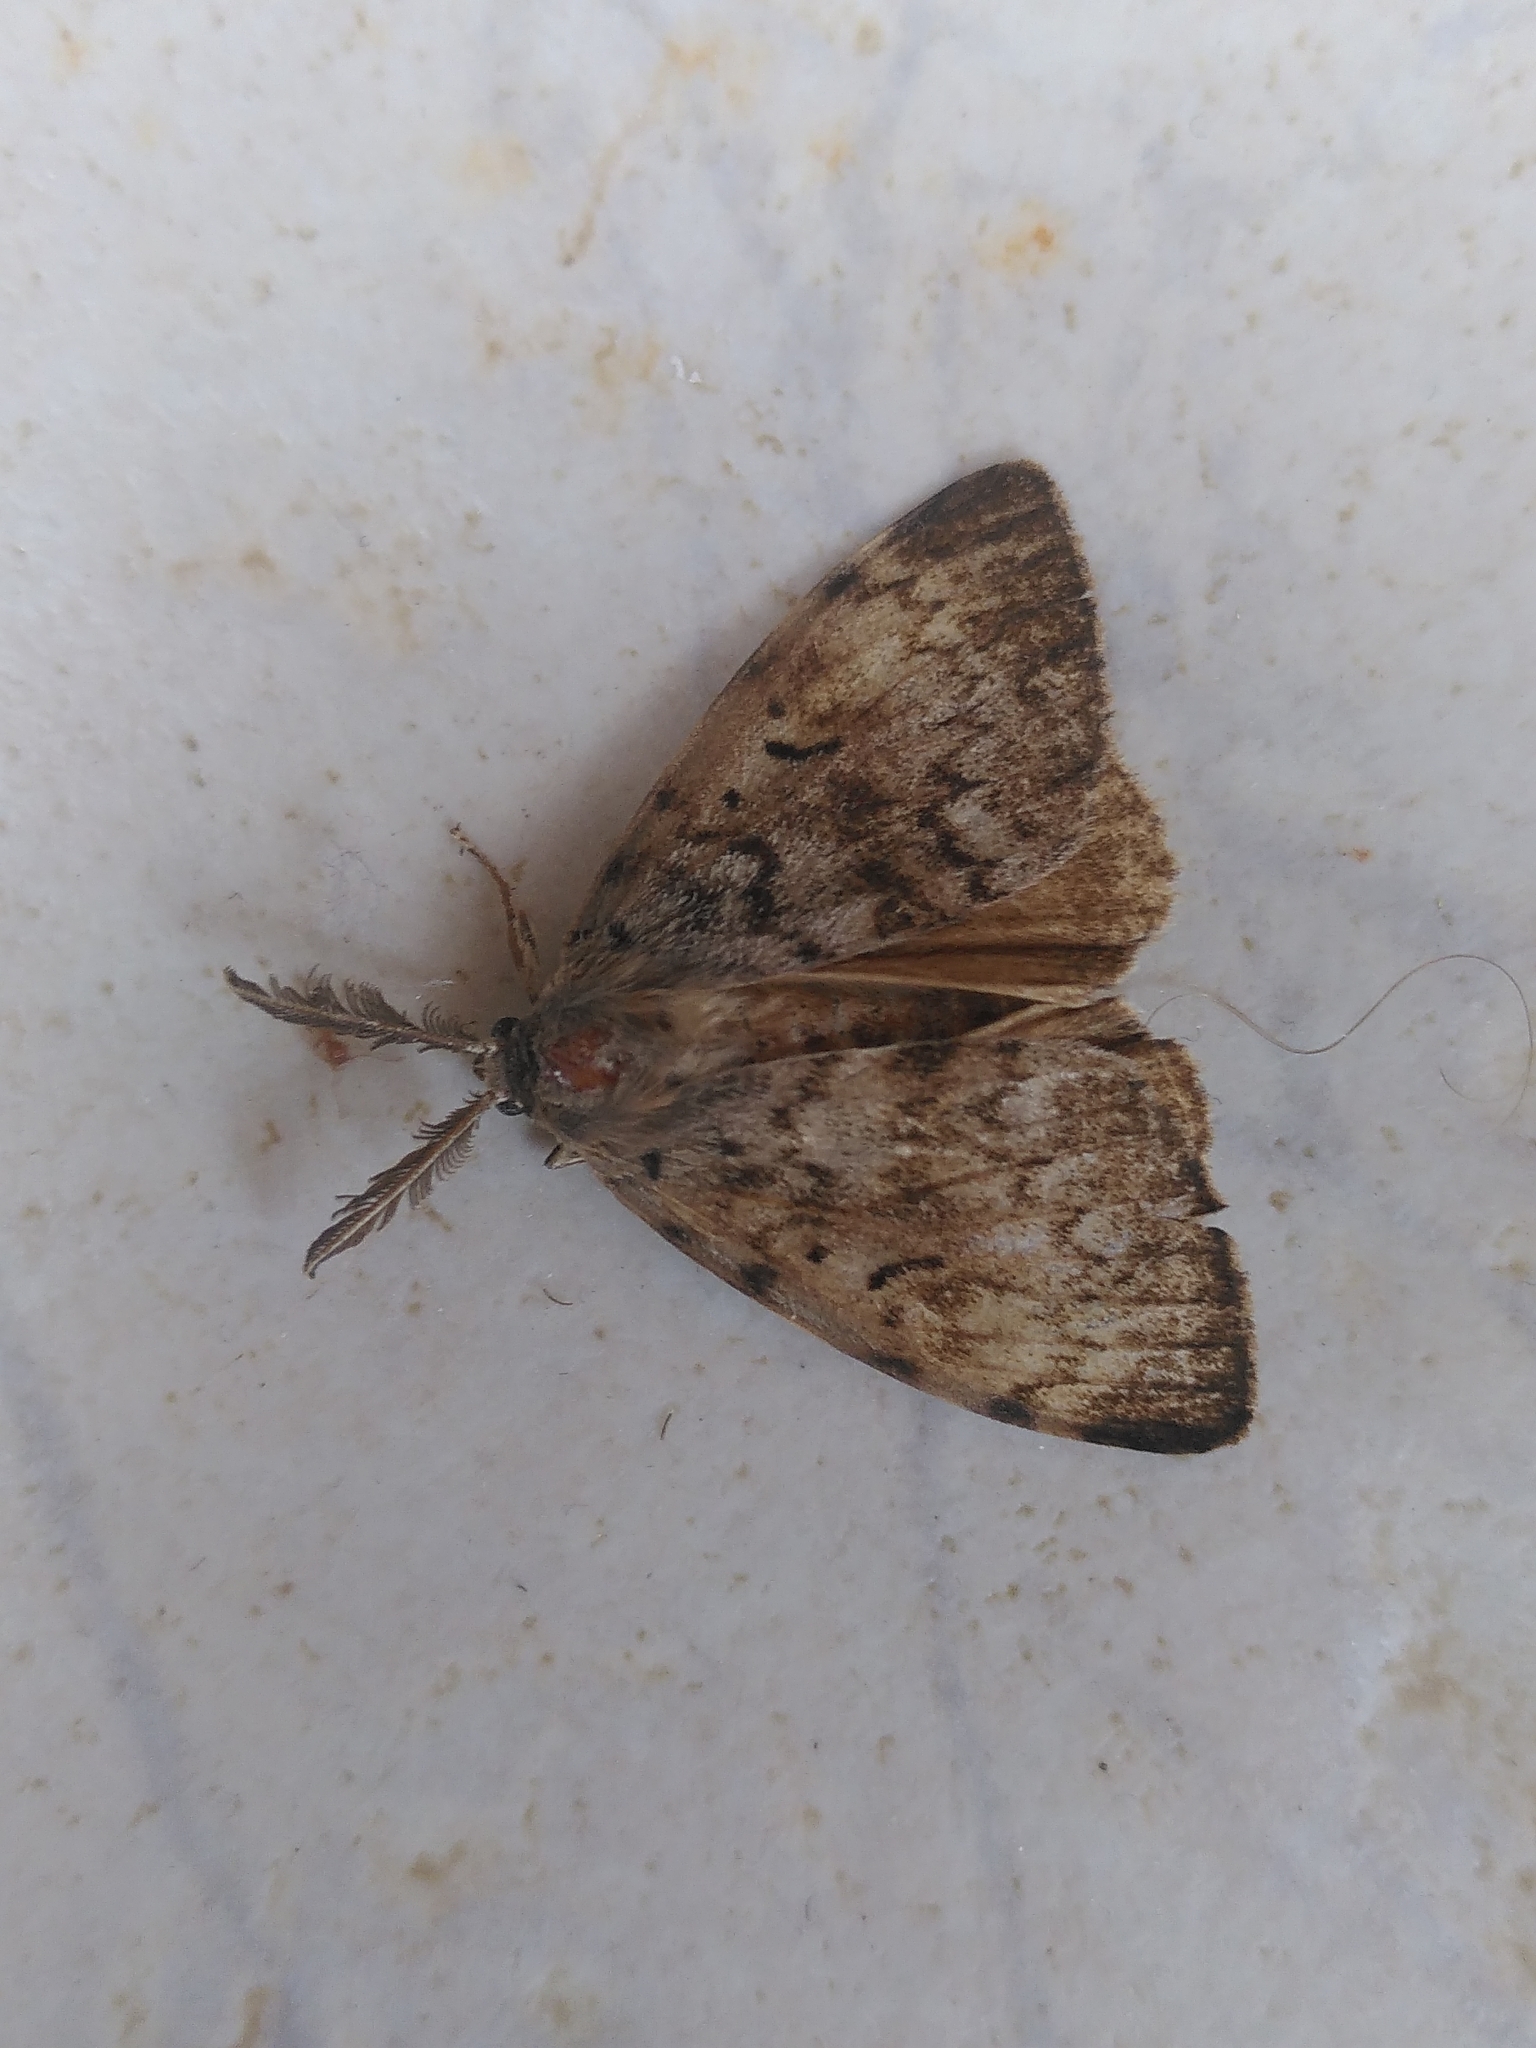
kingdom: Animalia
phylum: Arthropoda
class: Insecta
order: Lepidoptera
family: Erebidae
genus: Lymantria
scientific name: Lymantria dispar
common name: Gypsy moth
